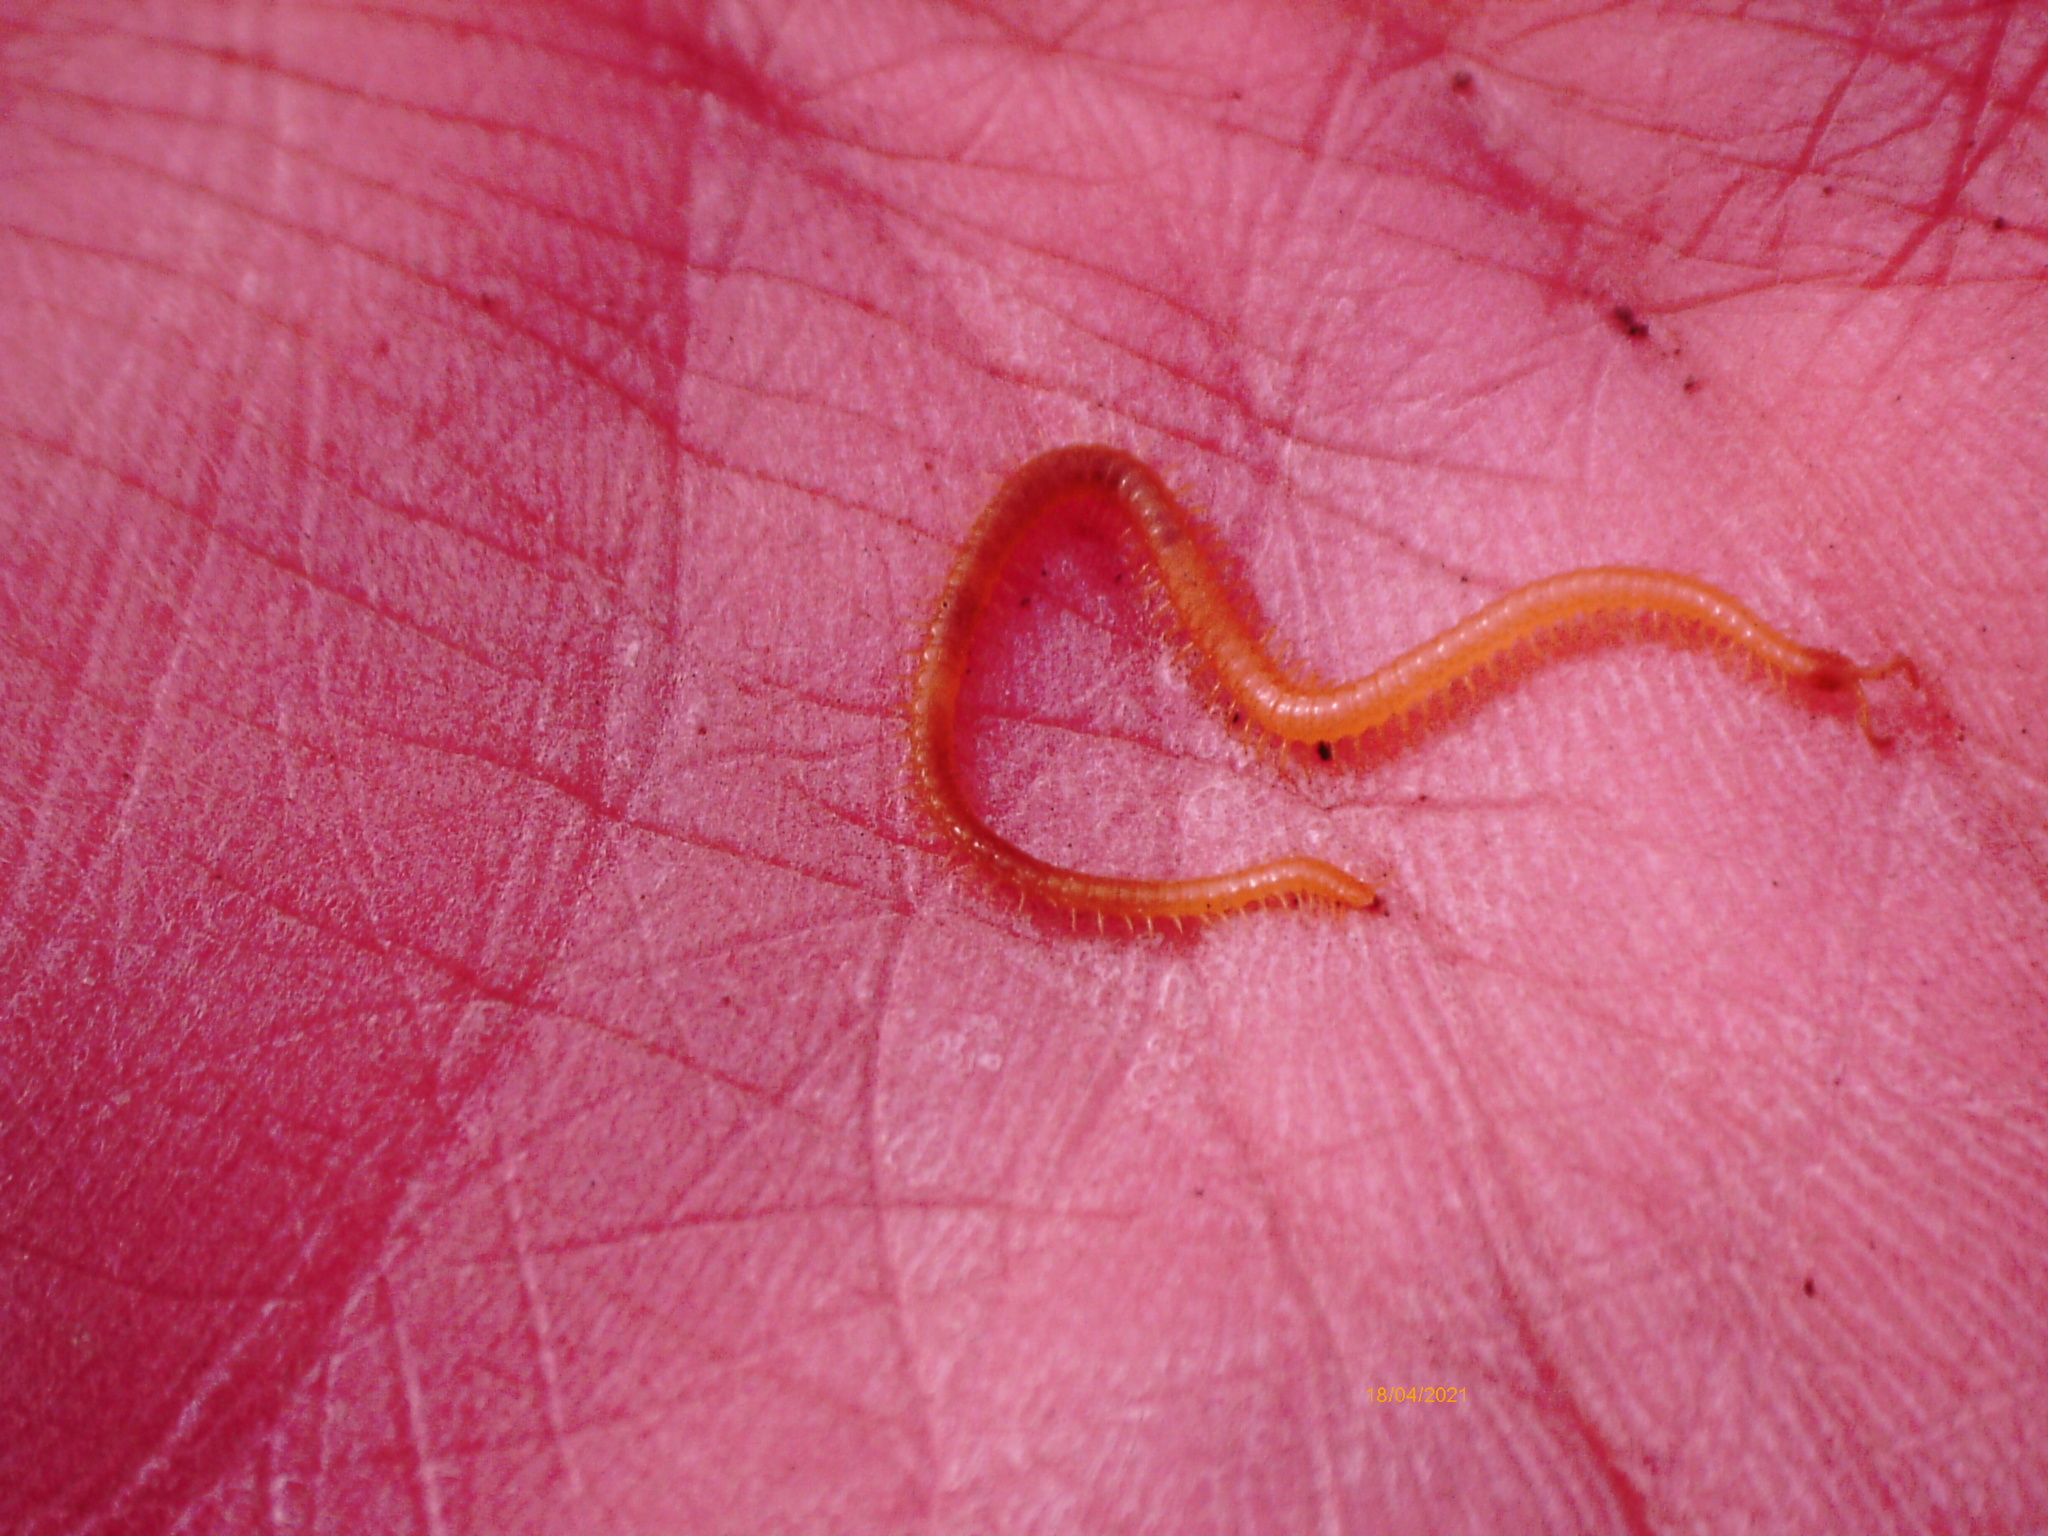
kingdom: Animalia
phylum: Arthropoda
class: Chilopoda
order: Geophilomorpha
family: Himantariidae
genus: Stigmatogaster
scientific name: Stigmatogaster subterranea
